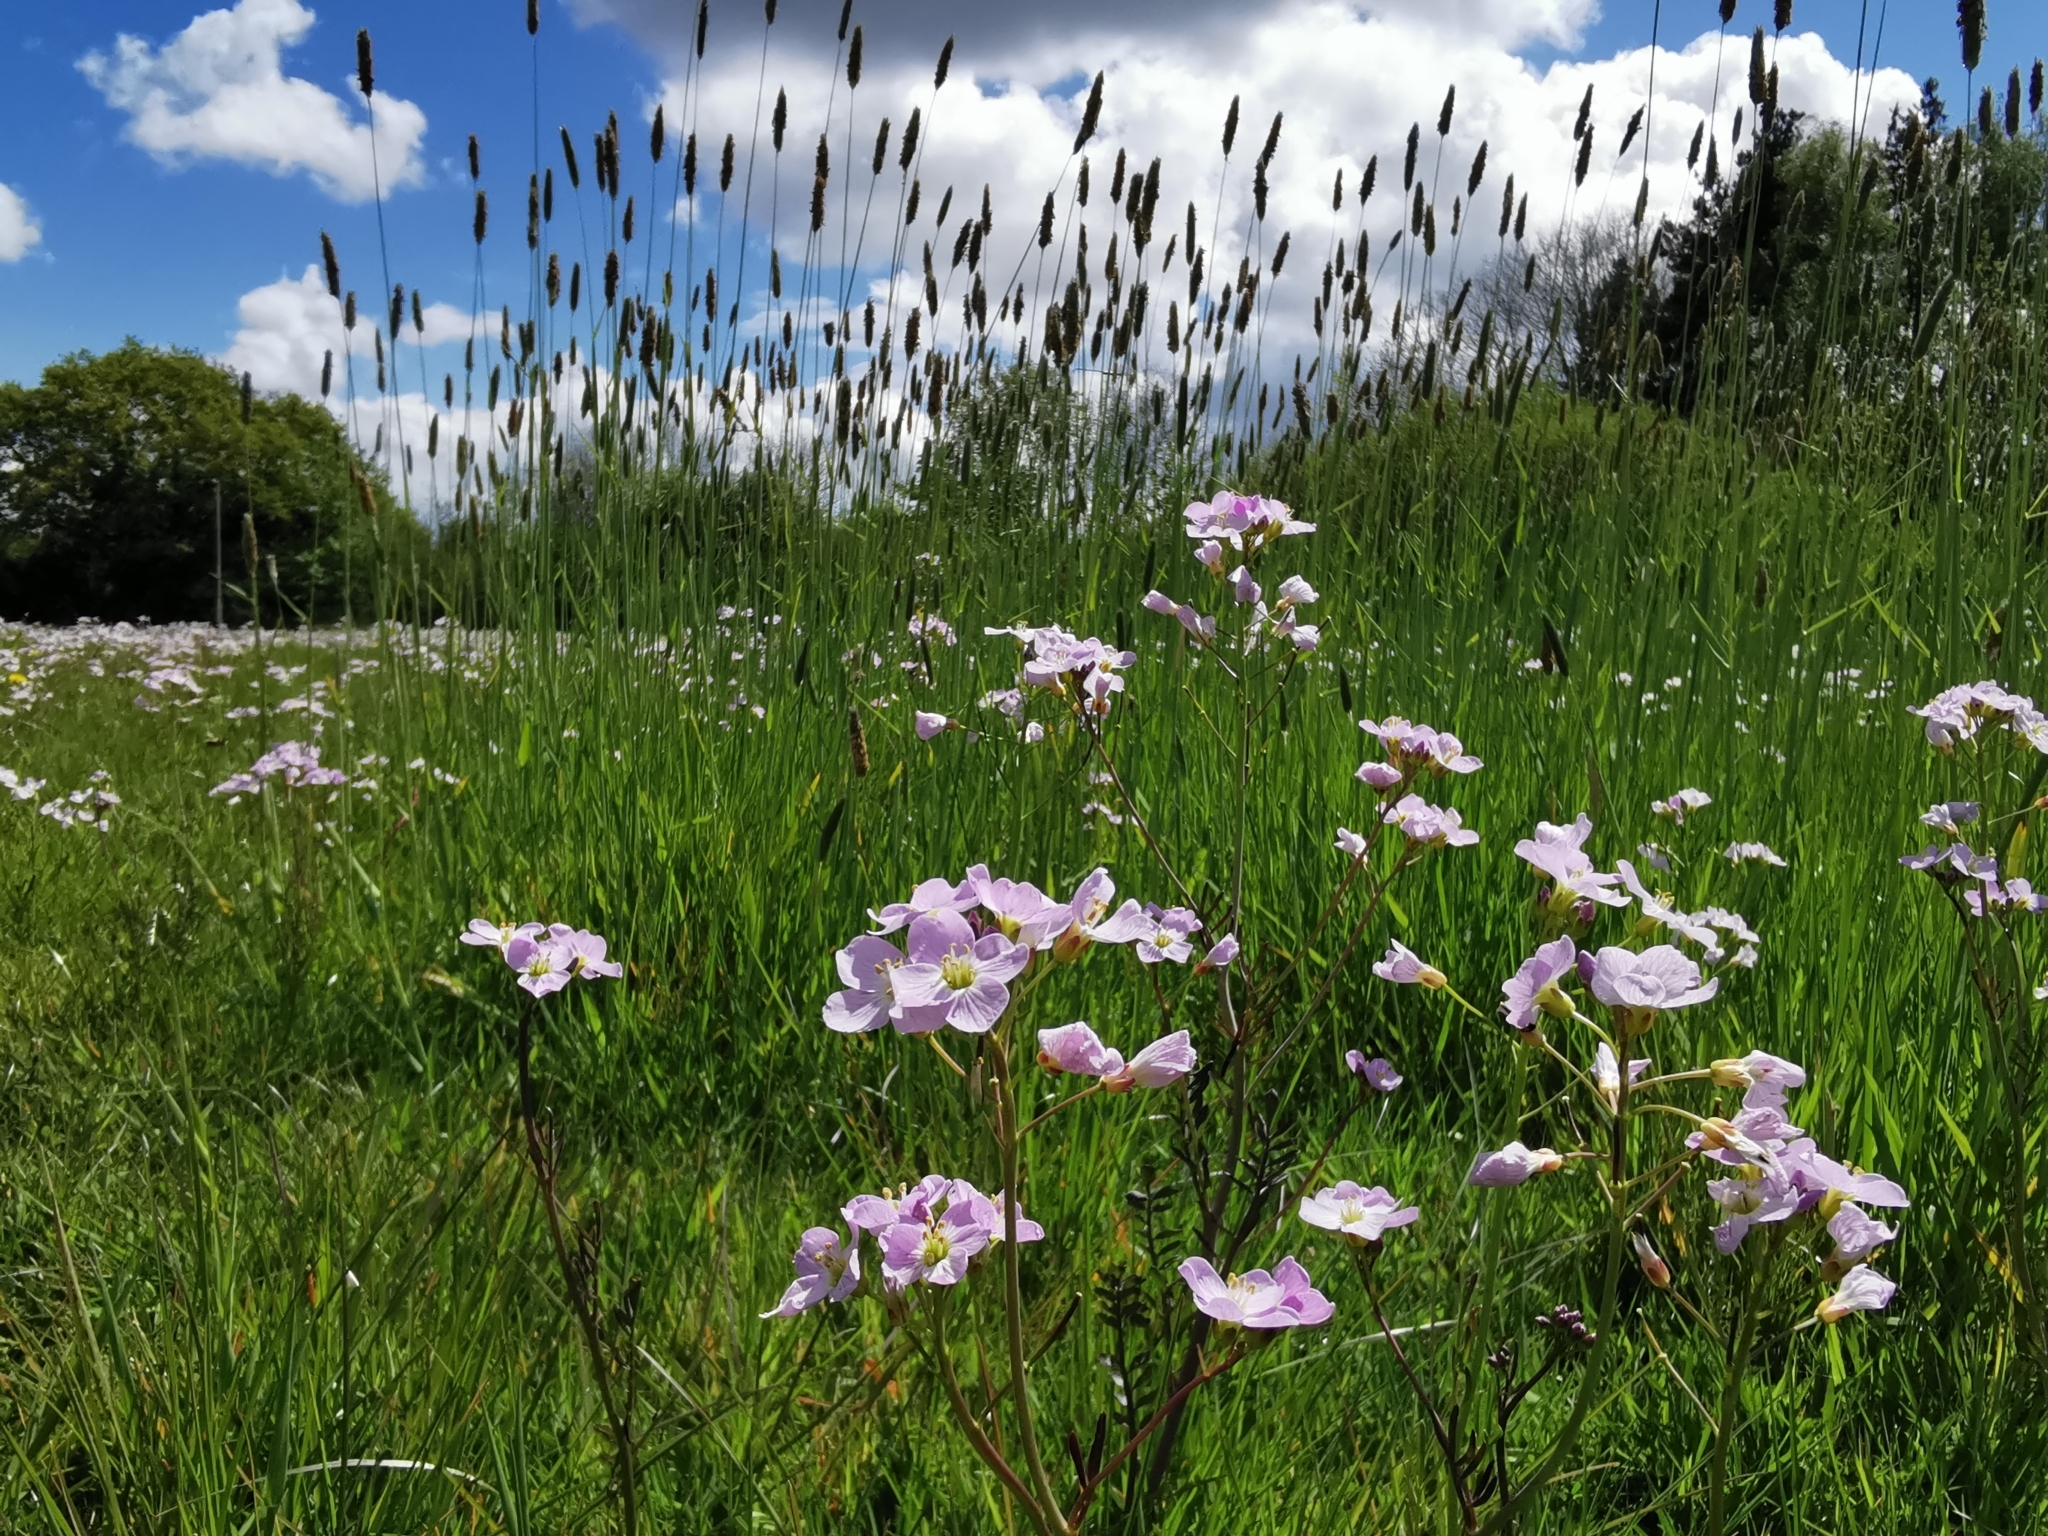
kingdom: Plantae
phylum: Tracheophyta
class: Magnoliopsida
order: Brassicales
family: Brassicaceae
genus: Cardamine
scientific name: Cardamine pratensis
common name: Cuckoo flower
